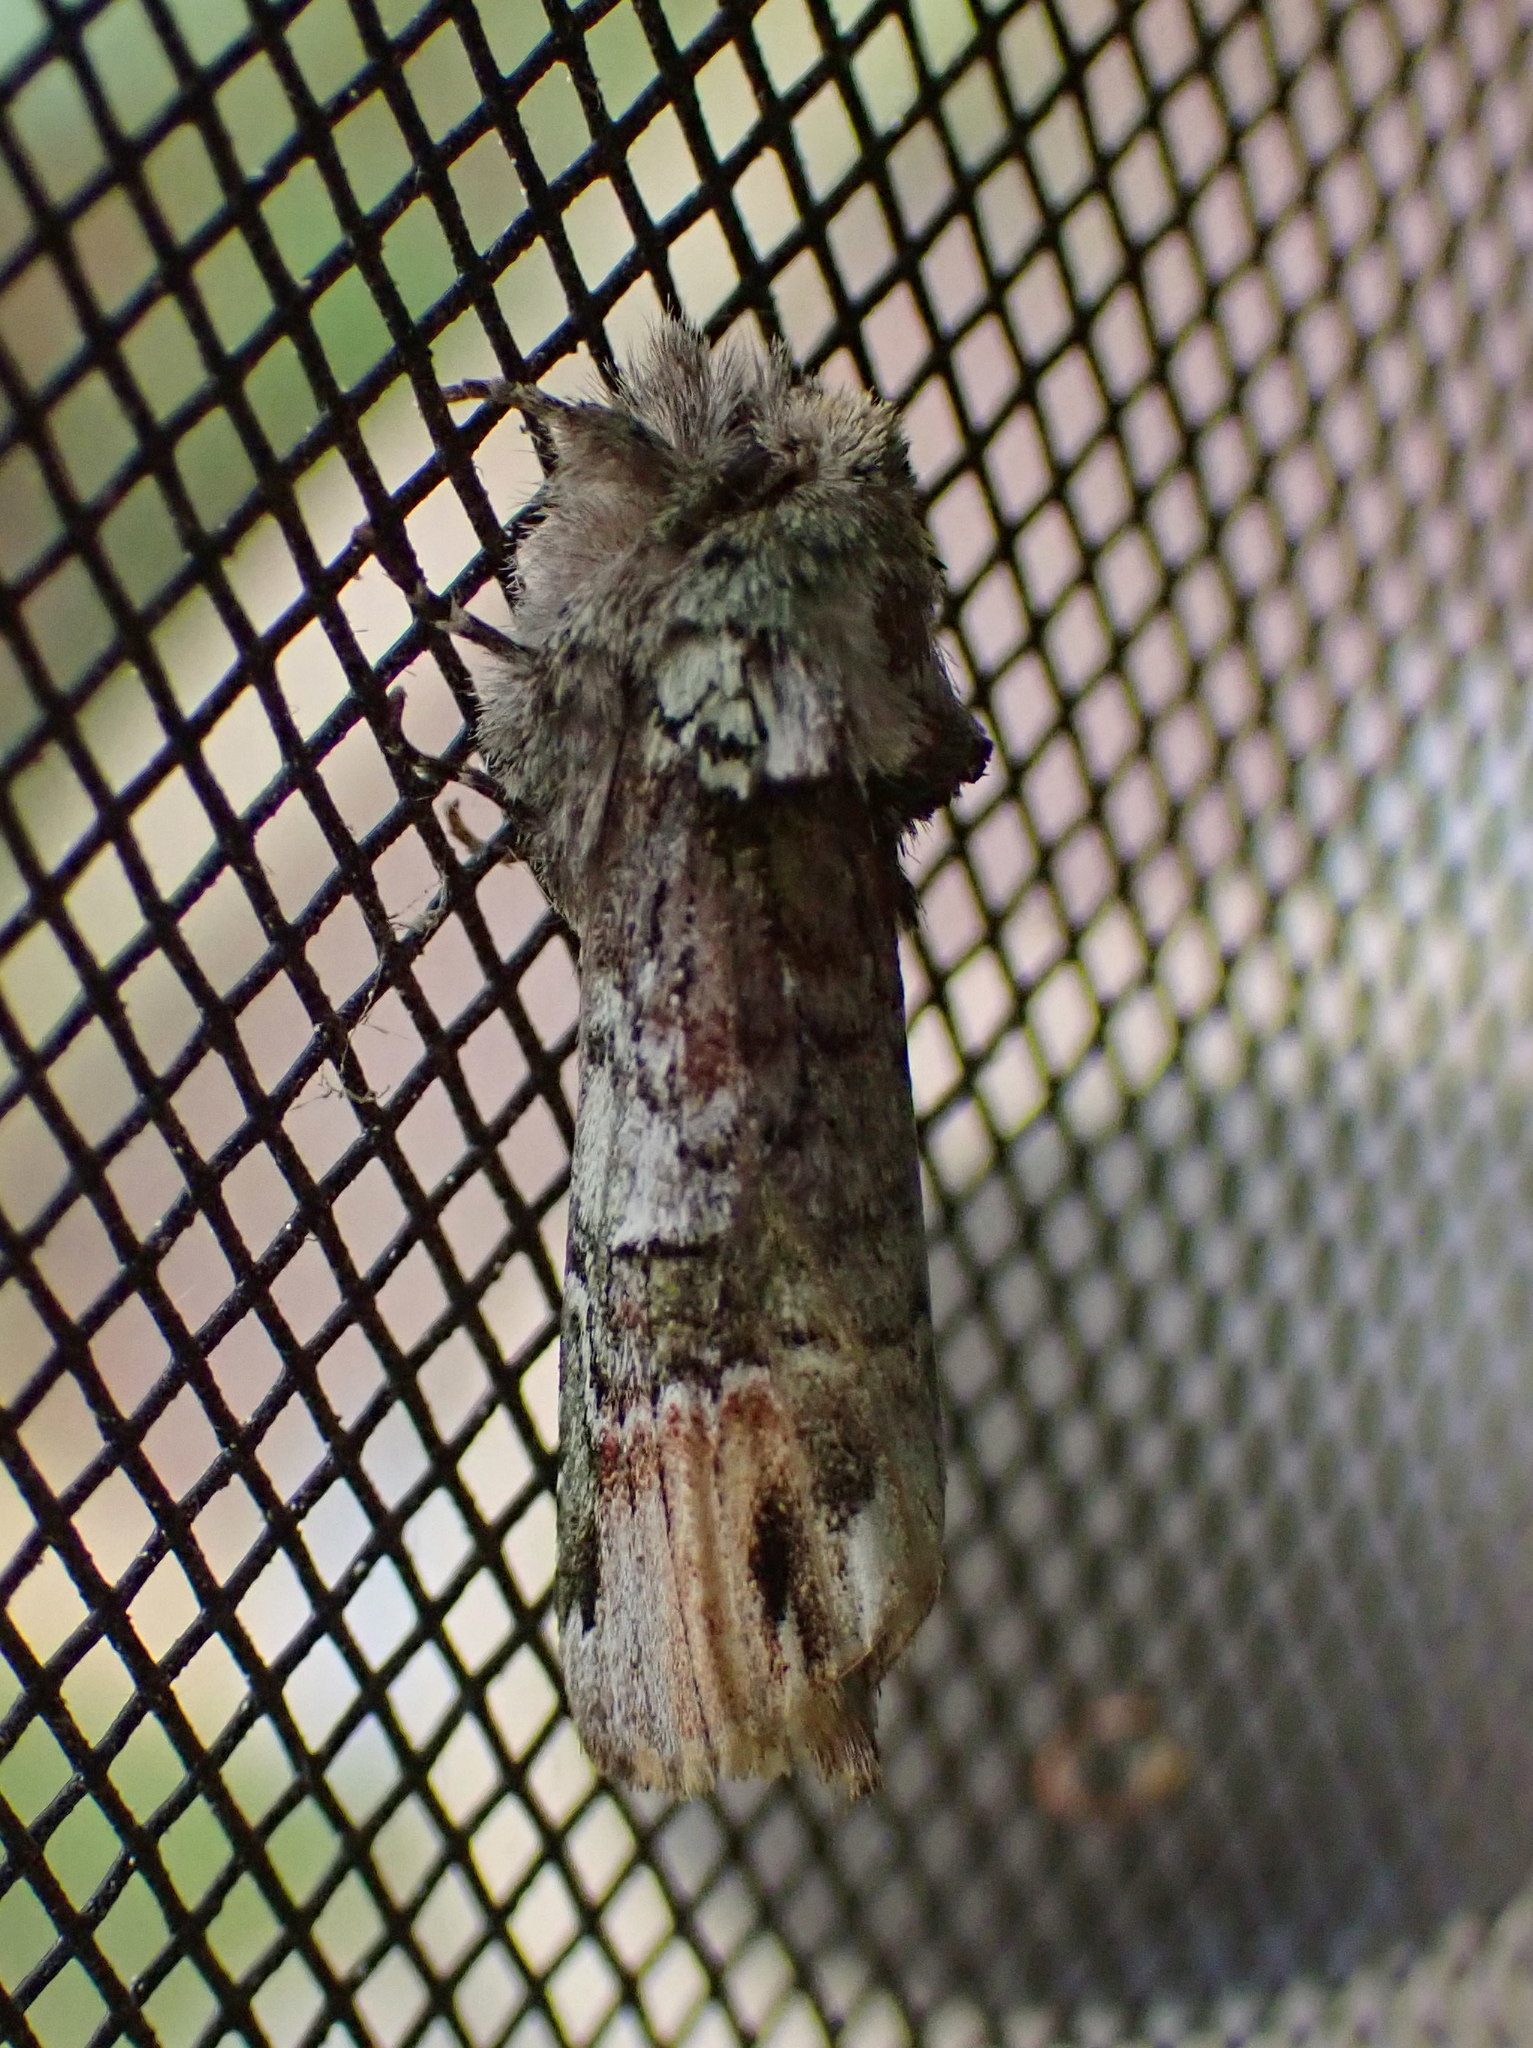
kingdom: Animalia
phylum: Arthropoda
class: Insecta
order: Lepidoptera
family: Notodontidae
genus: Schizura
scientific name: Schizura
